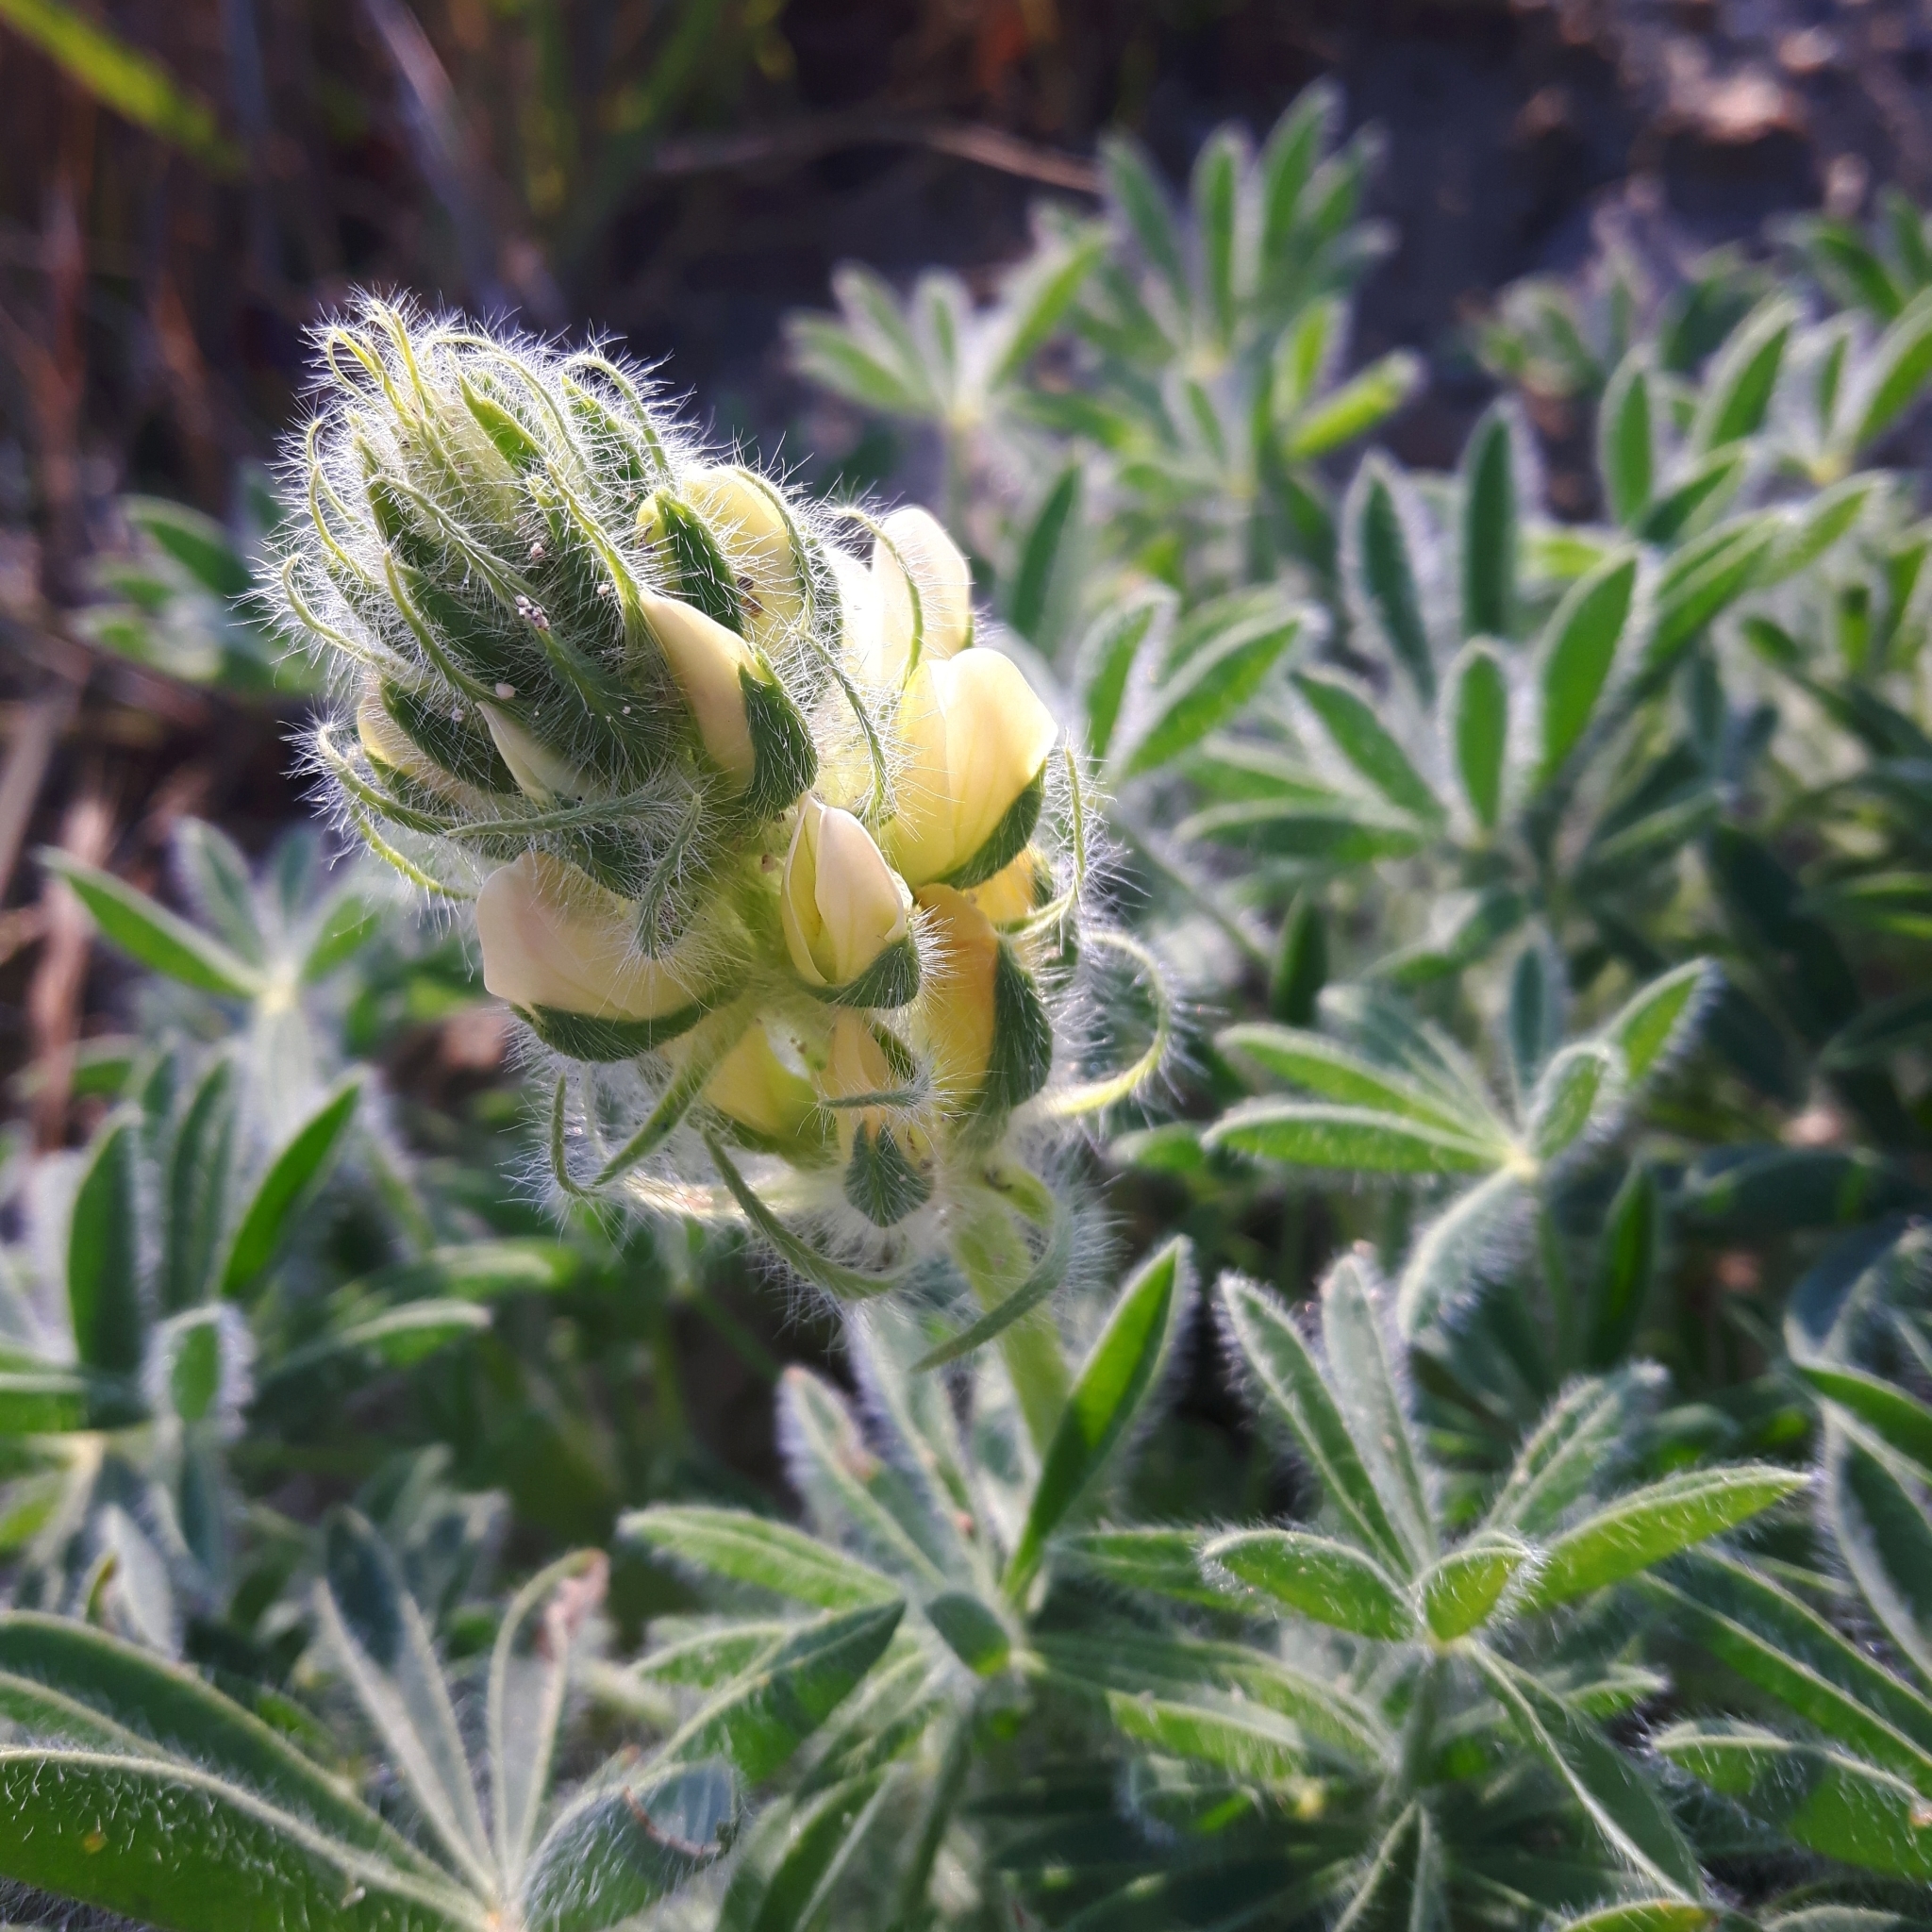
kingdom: Plantae
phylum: Tracheophyta
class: Magnoliopsida
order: Fabales
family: Fabaceae
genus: Lupinus
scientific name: Lupinus densiflorus
